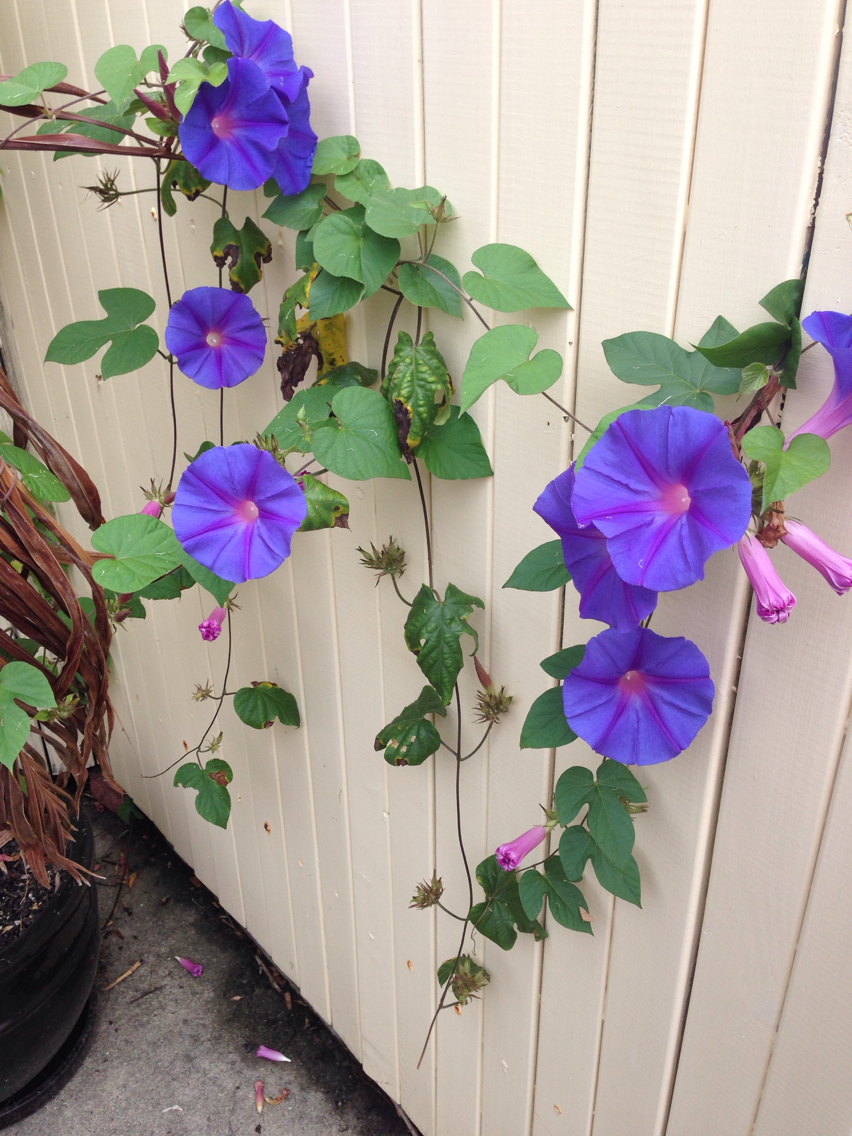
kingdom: Plantae
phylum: Tracheophyta
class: Magnoliopsida
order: Solanales
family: Convolvulaceae
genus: Ipomoea
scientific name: Ipomoea indica
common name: Blue dawnflower
